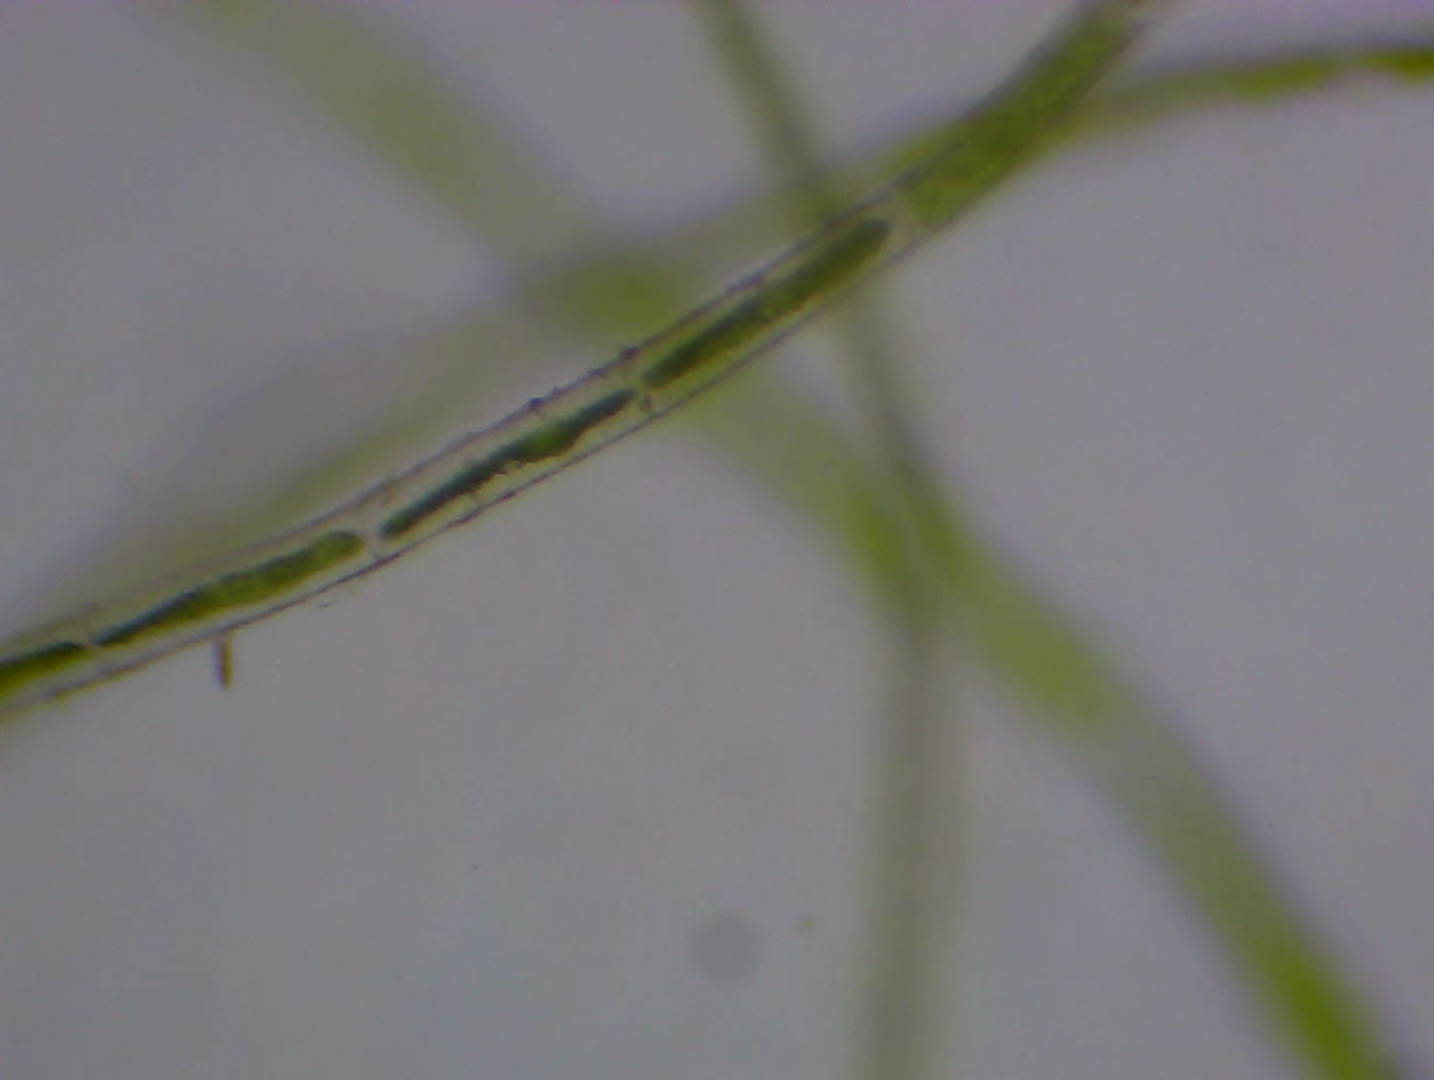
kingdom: Plantae
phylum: Charophyta
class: Zygnematophyceae
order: Zygnematales
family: Zygnemataceae
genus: Mougeotia
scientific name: Mougeotia
